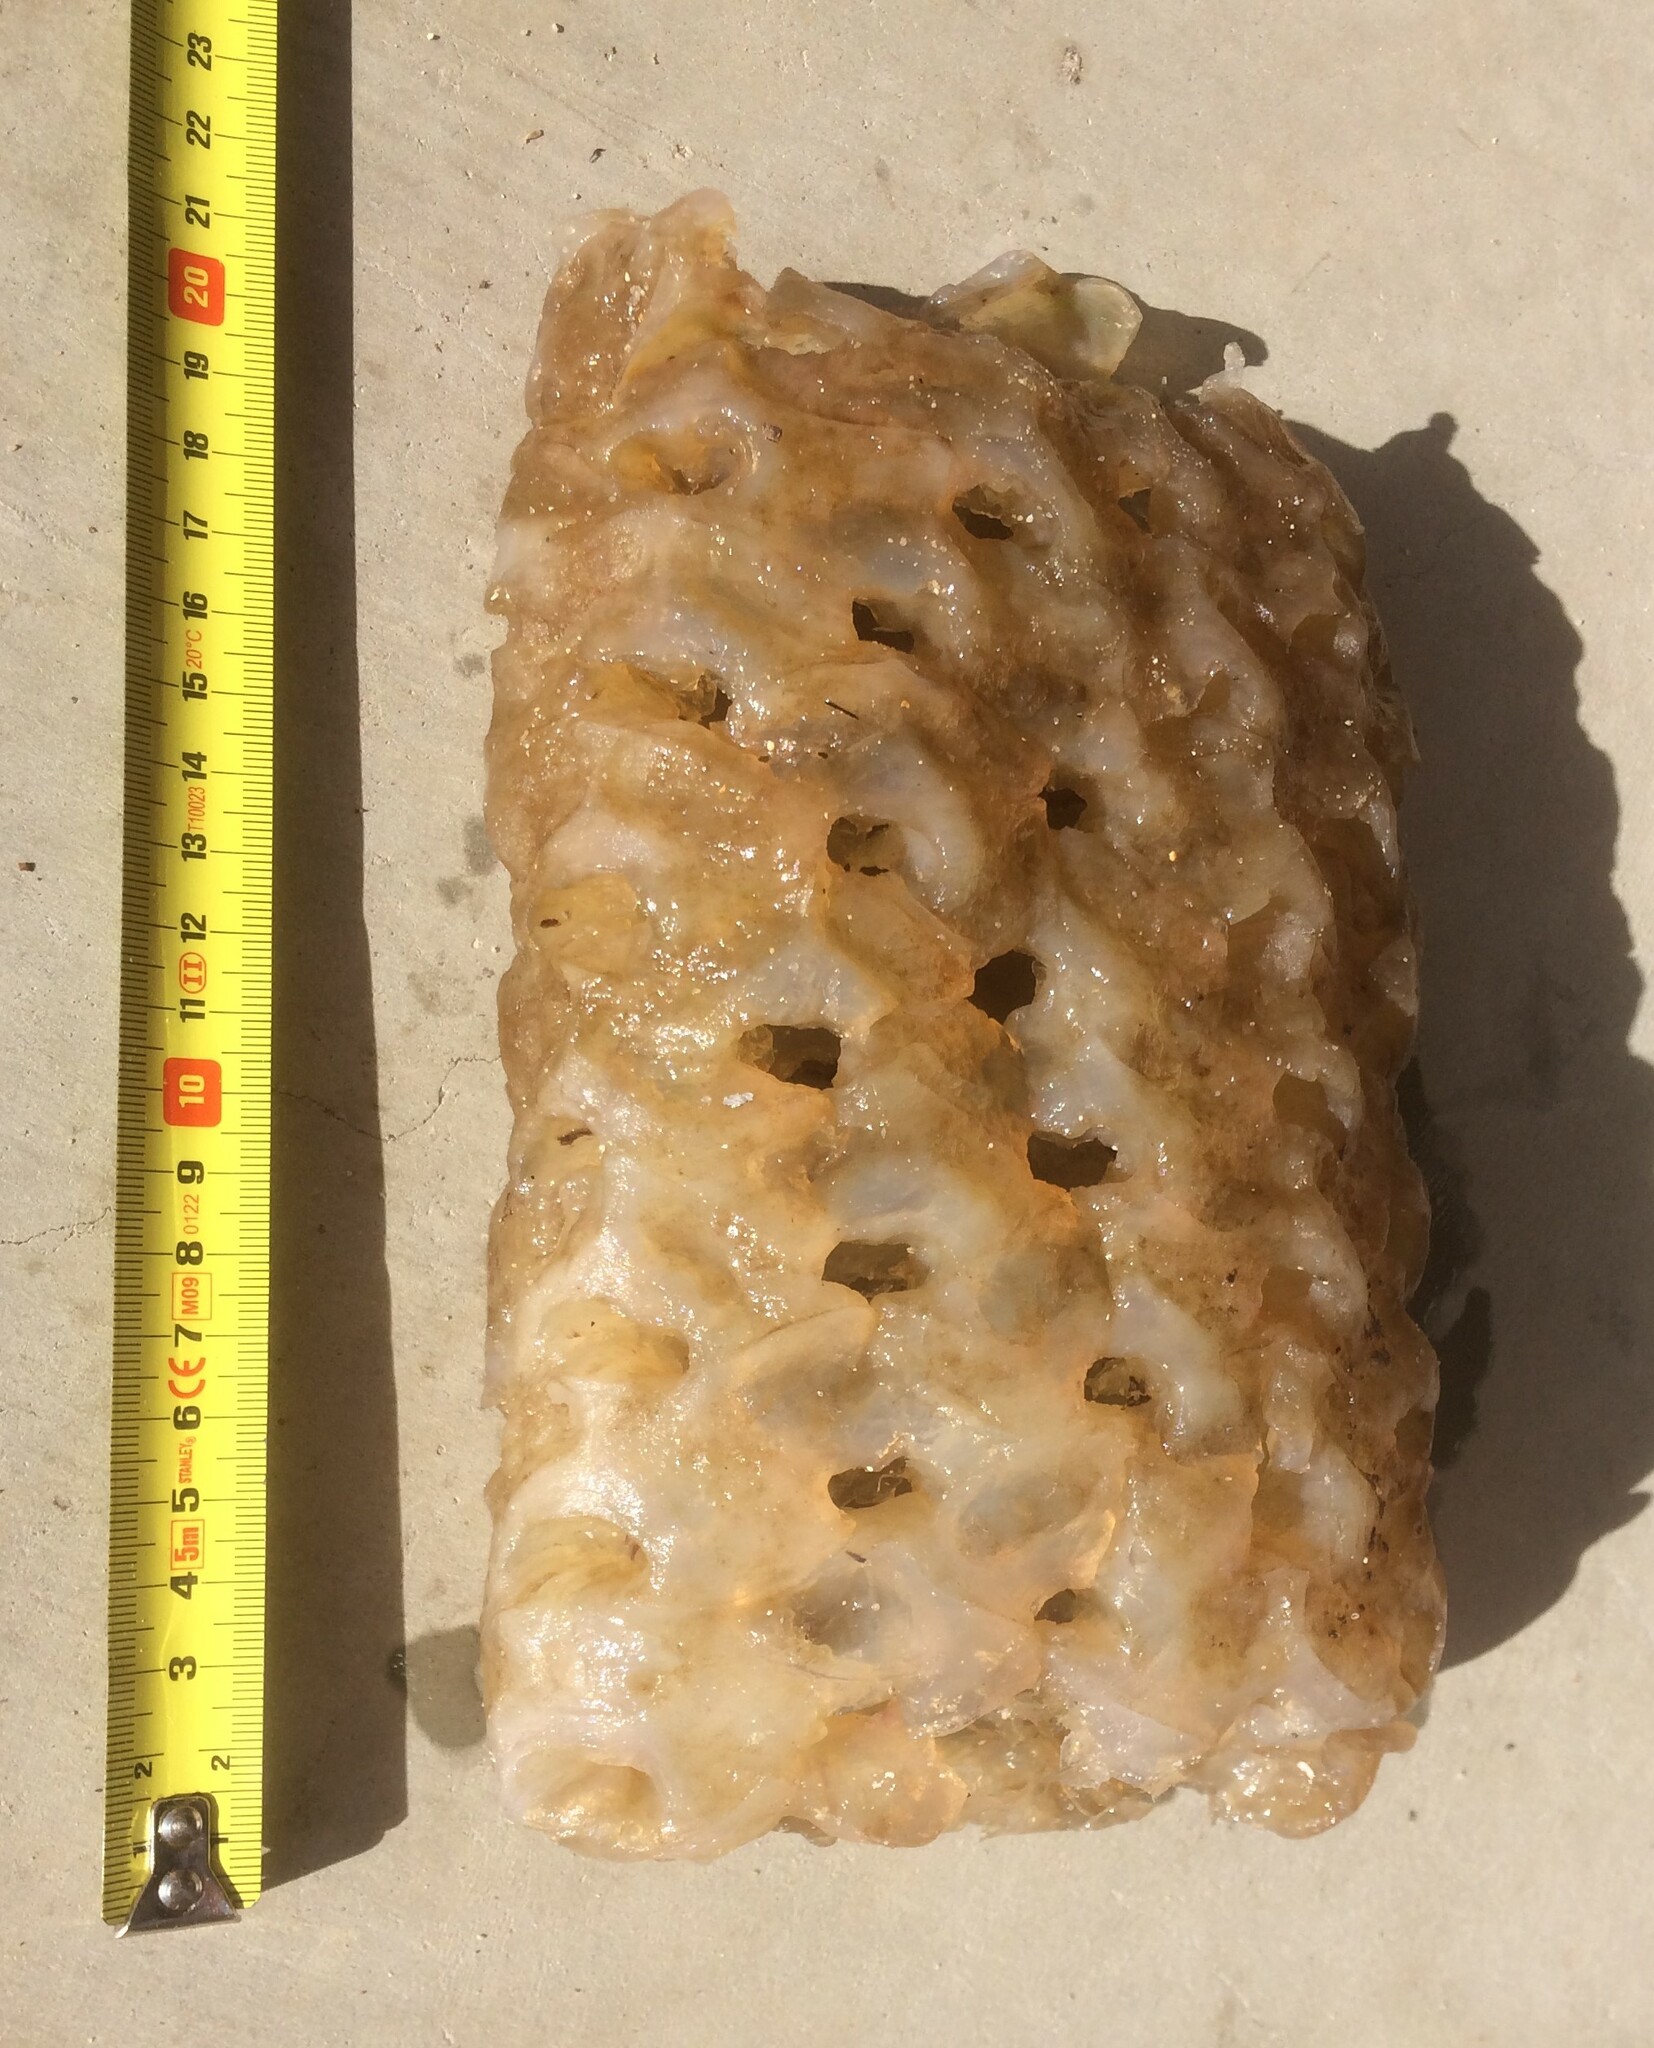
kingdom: Animalia
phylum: Mollusca
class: Gastropoda
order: Neogastropoda
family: Volutidae
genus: Melo
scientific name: Melo miltonis
